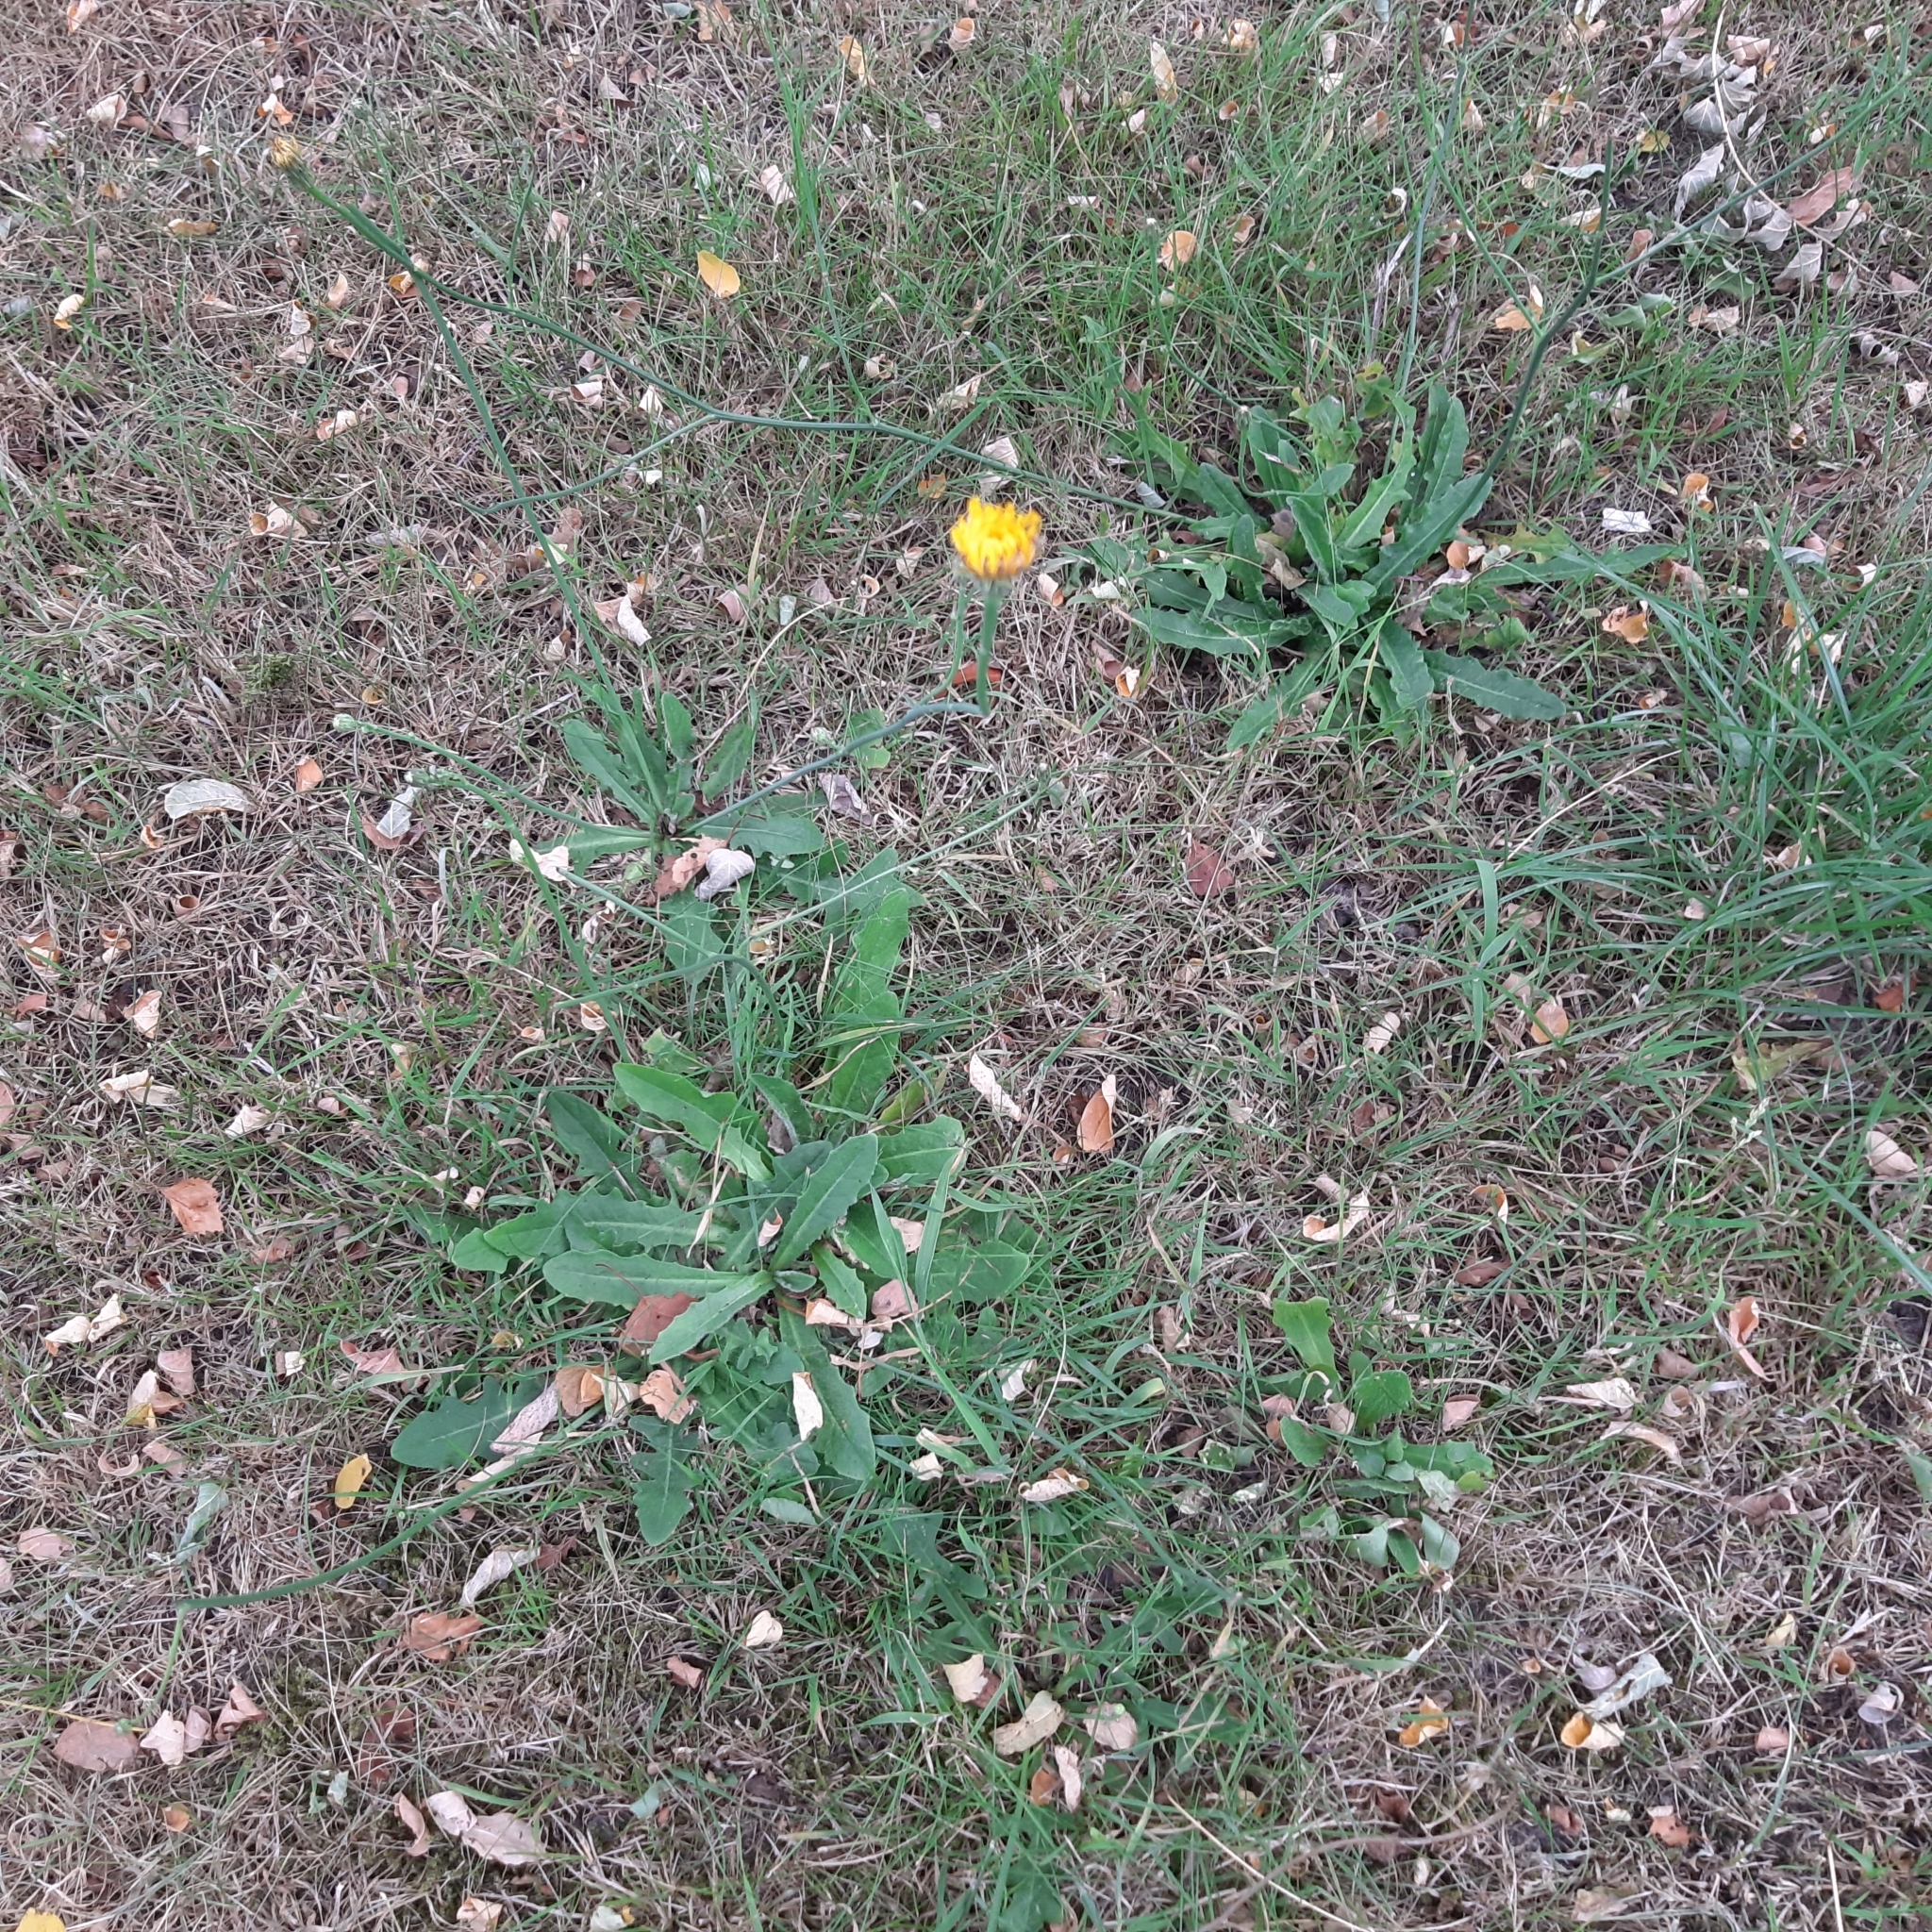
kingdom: Plantae
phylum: Tracheophyta
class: Magnoliopsida
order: Asterales
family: Asteraceae
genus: Hypochaeris
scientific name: Hypochaeris radicata
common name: Flatweed
